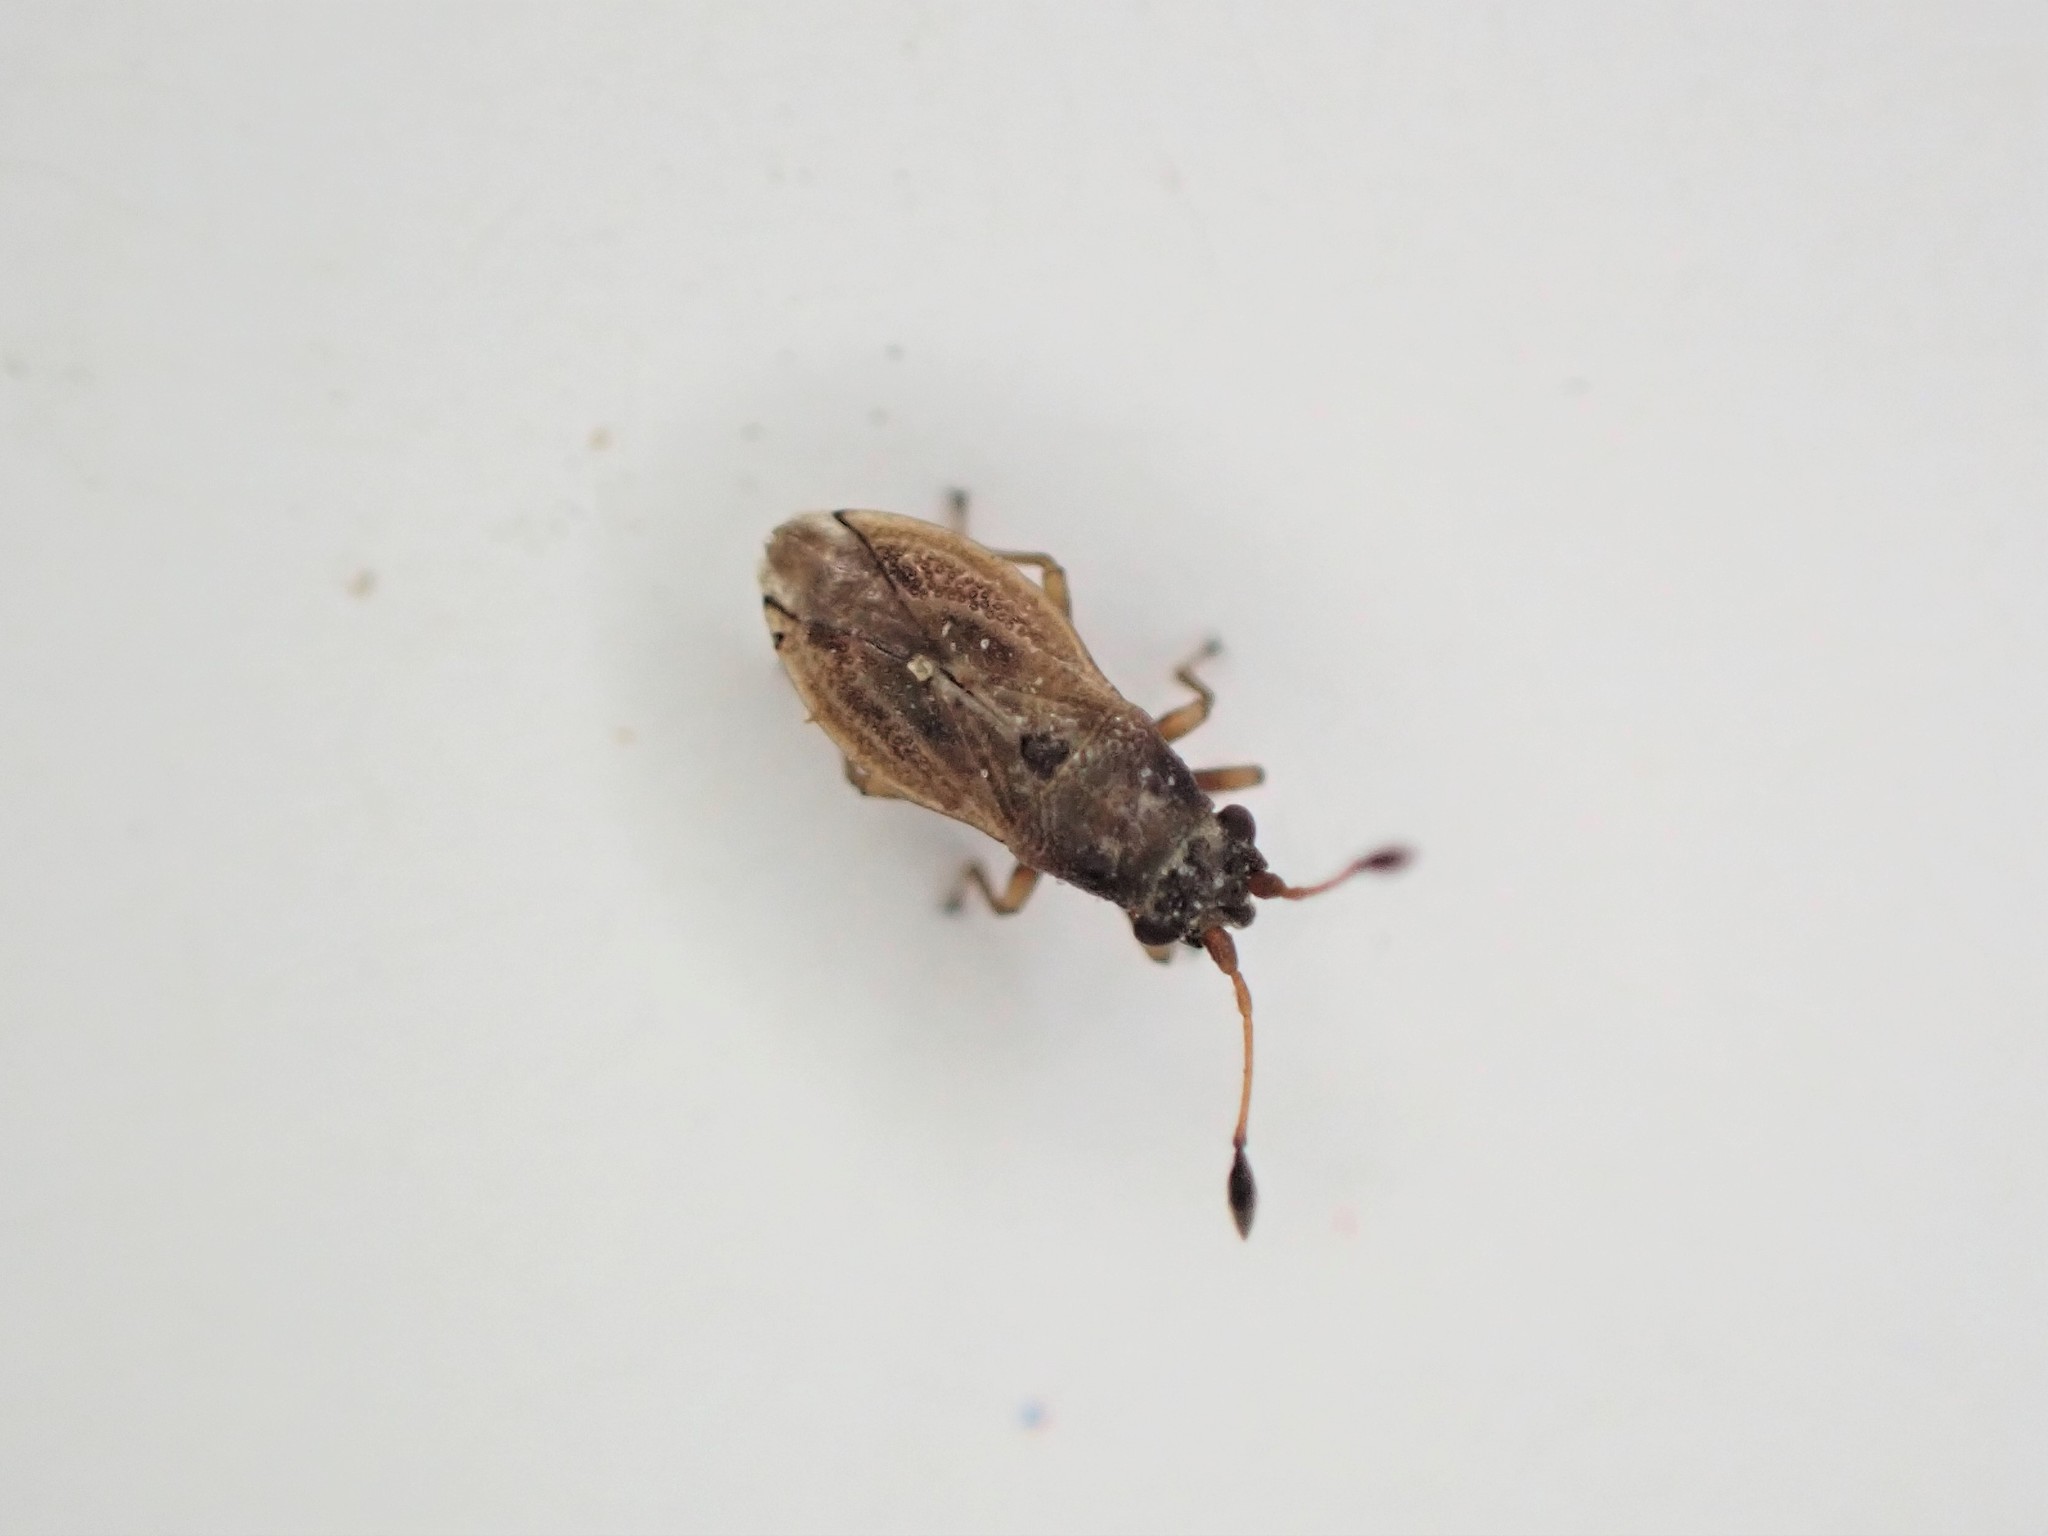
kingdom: Animalia
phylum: Arthropoda
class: Insecta
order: Hemiptera
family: Cymidae
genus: Cymus
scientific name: Cymus novaezelandiae
